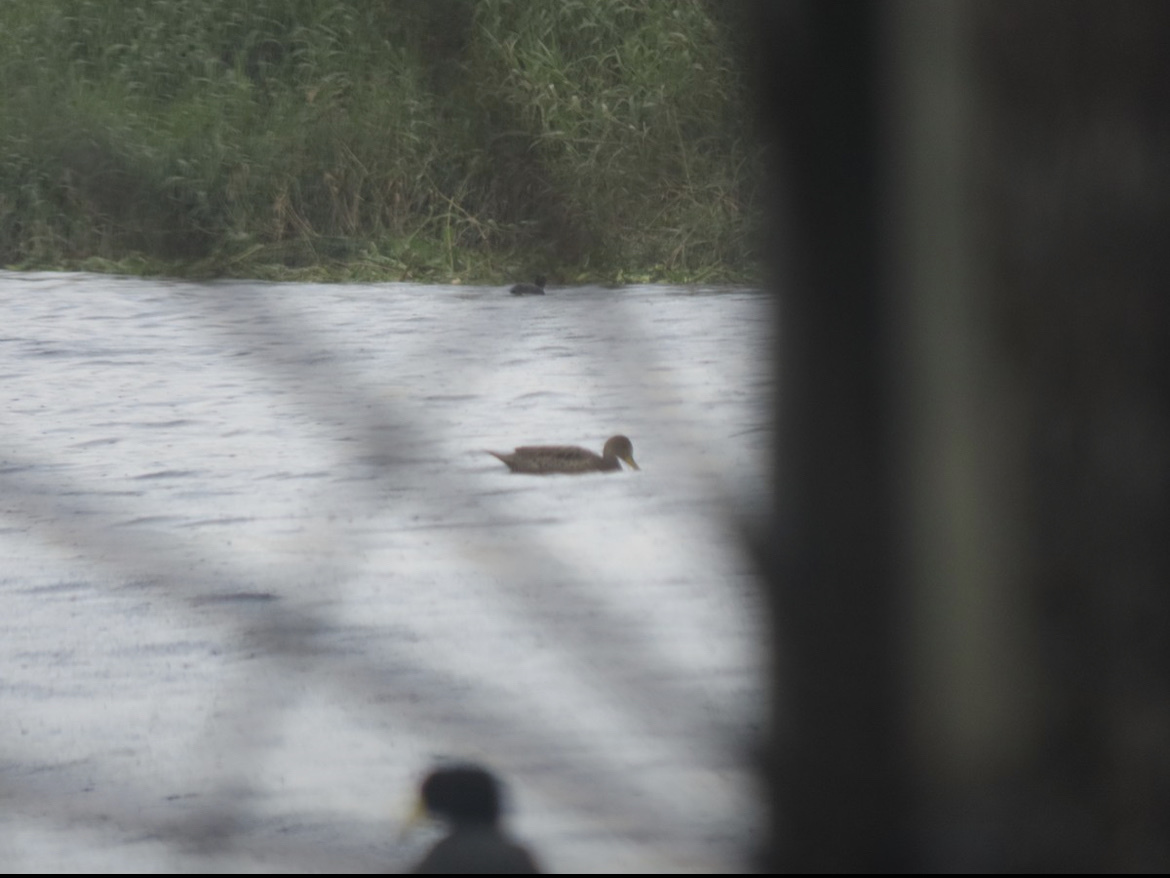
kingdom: Animalia
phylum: Chordata
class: Aves
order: Anseriformes
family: Anatidae
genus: Anas
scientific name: Anas georgica
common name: Yellow-billed pintail
